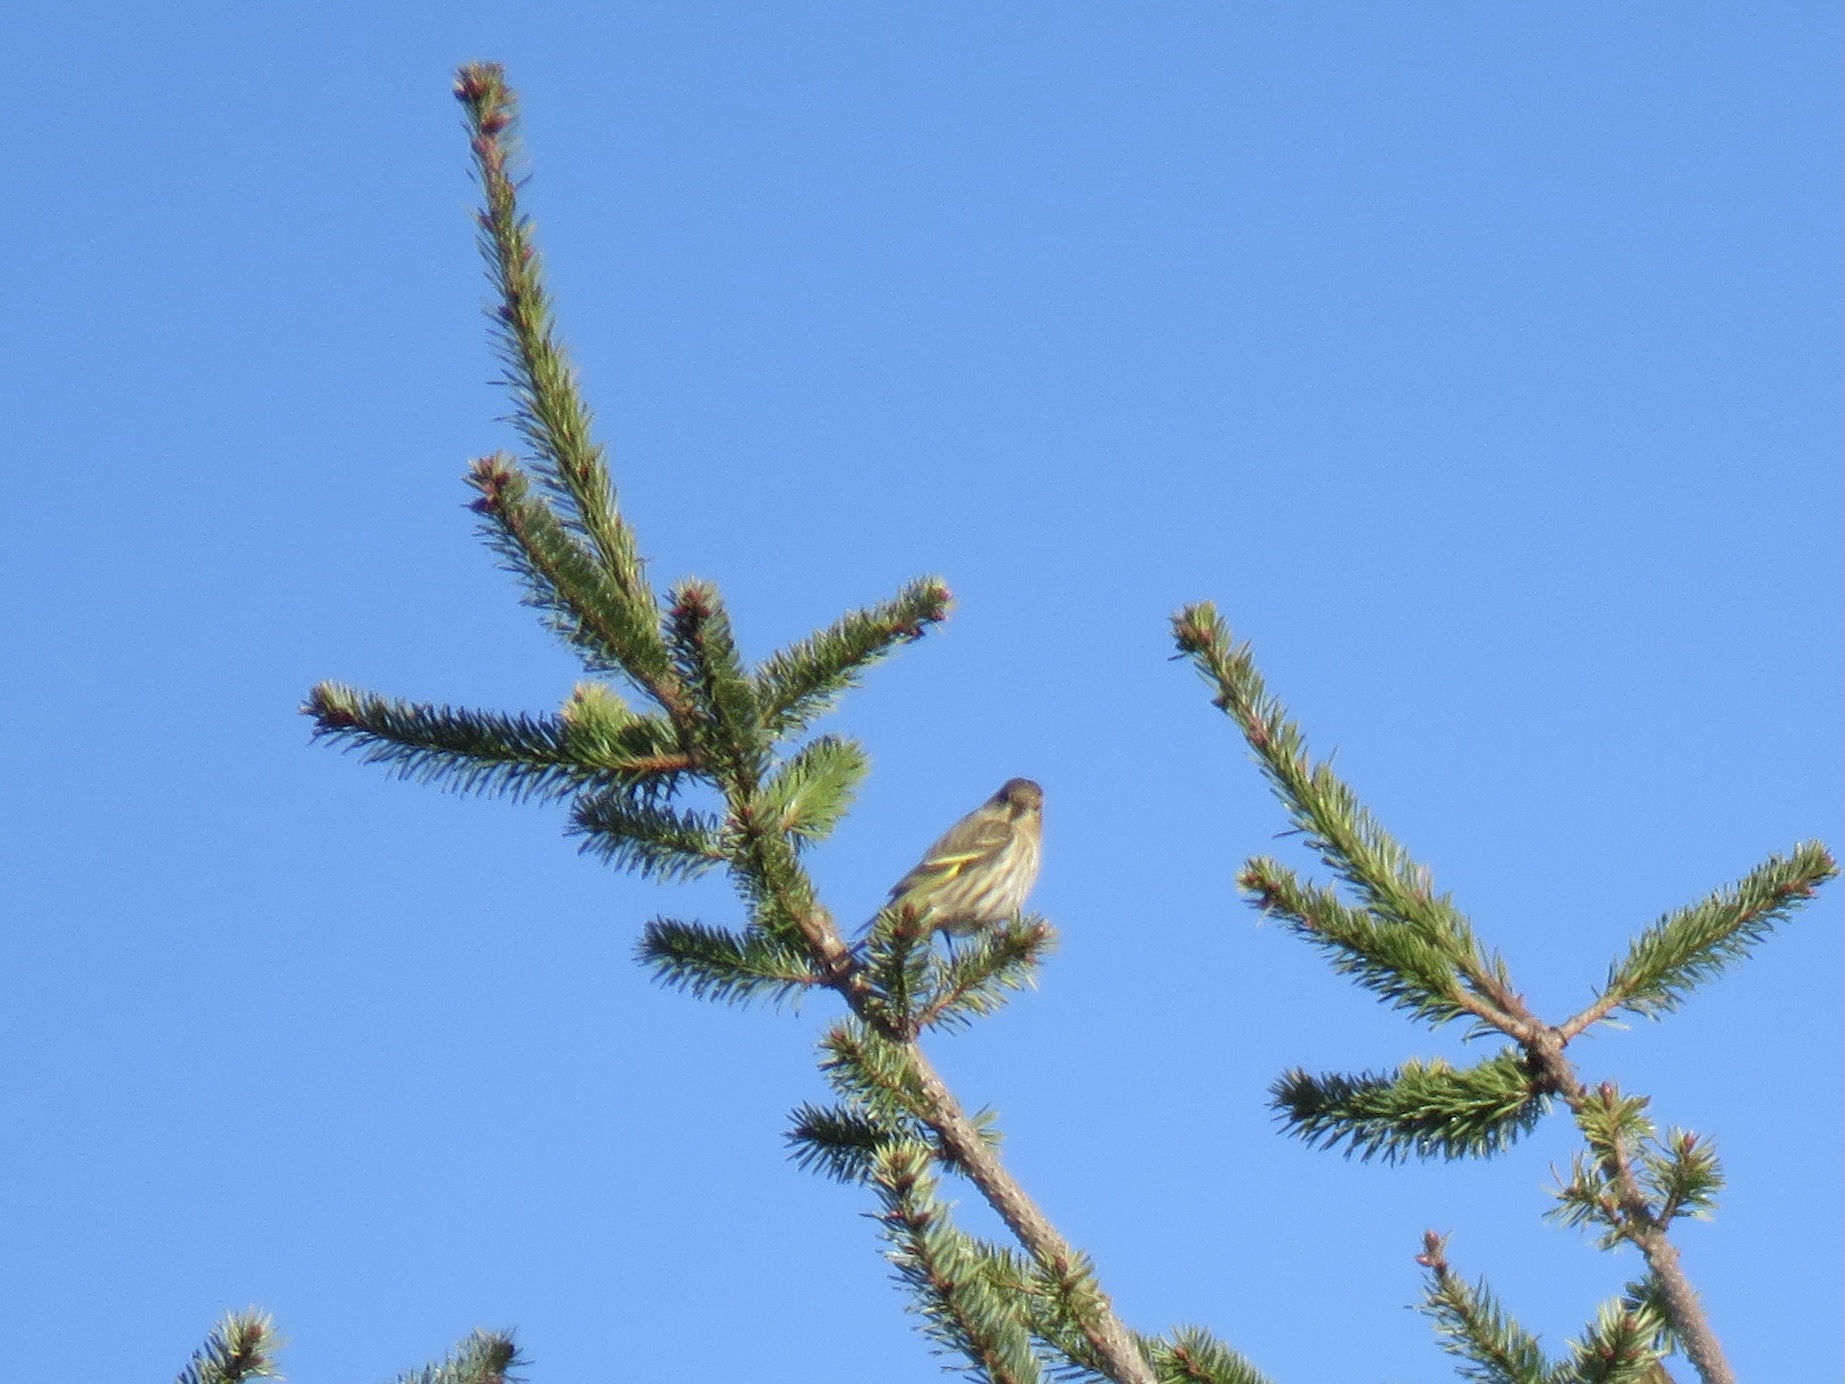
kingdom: Animalia
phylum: Chordata
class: Aves
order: Passeriformes
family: Fringillidae
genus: Spinus
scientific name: Spinus pinus
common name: Pine siskin
